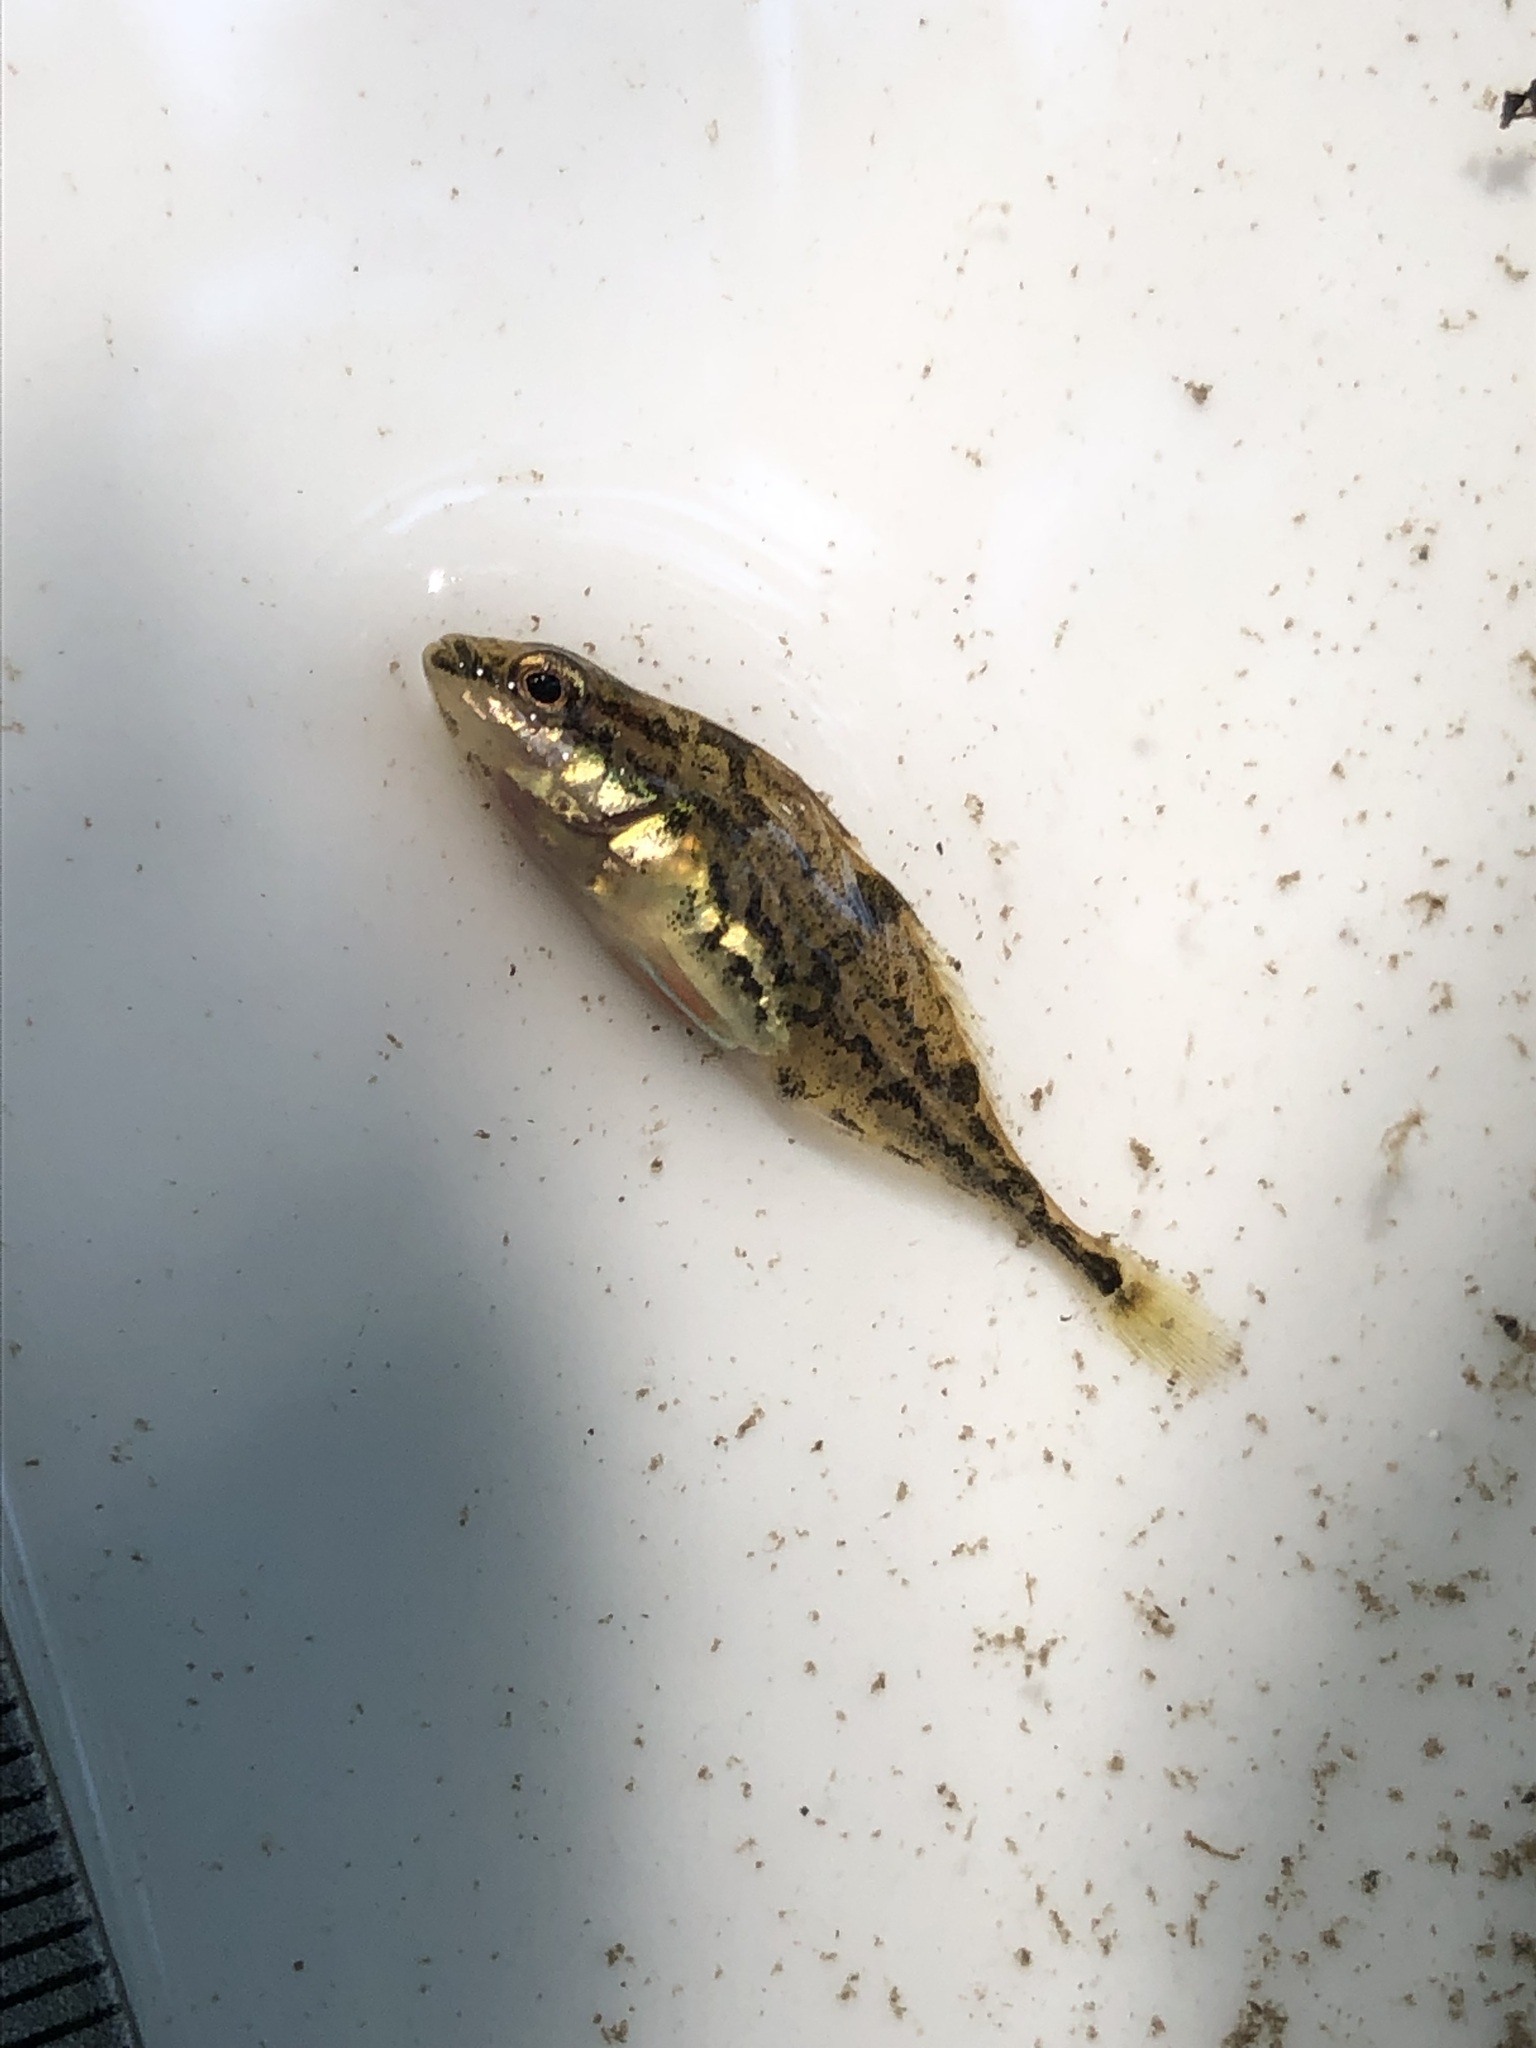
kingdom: Animalia
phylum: Chordata
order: Gasterosteiformes
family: Gasterosteidae
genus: Apeltes
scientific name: Apeltes quadracus
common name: Fourspine stickleback
